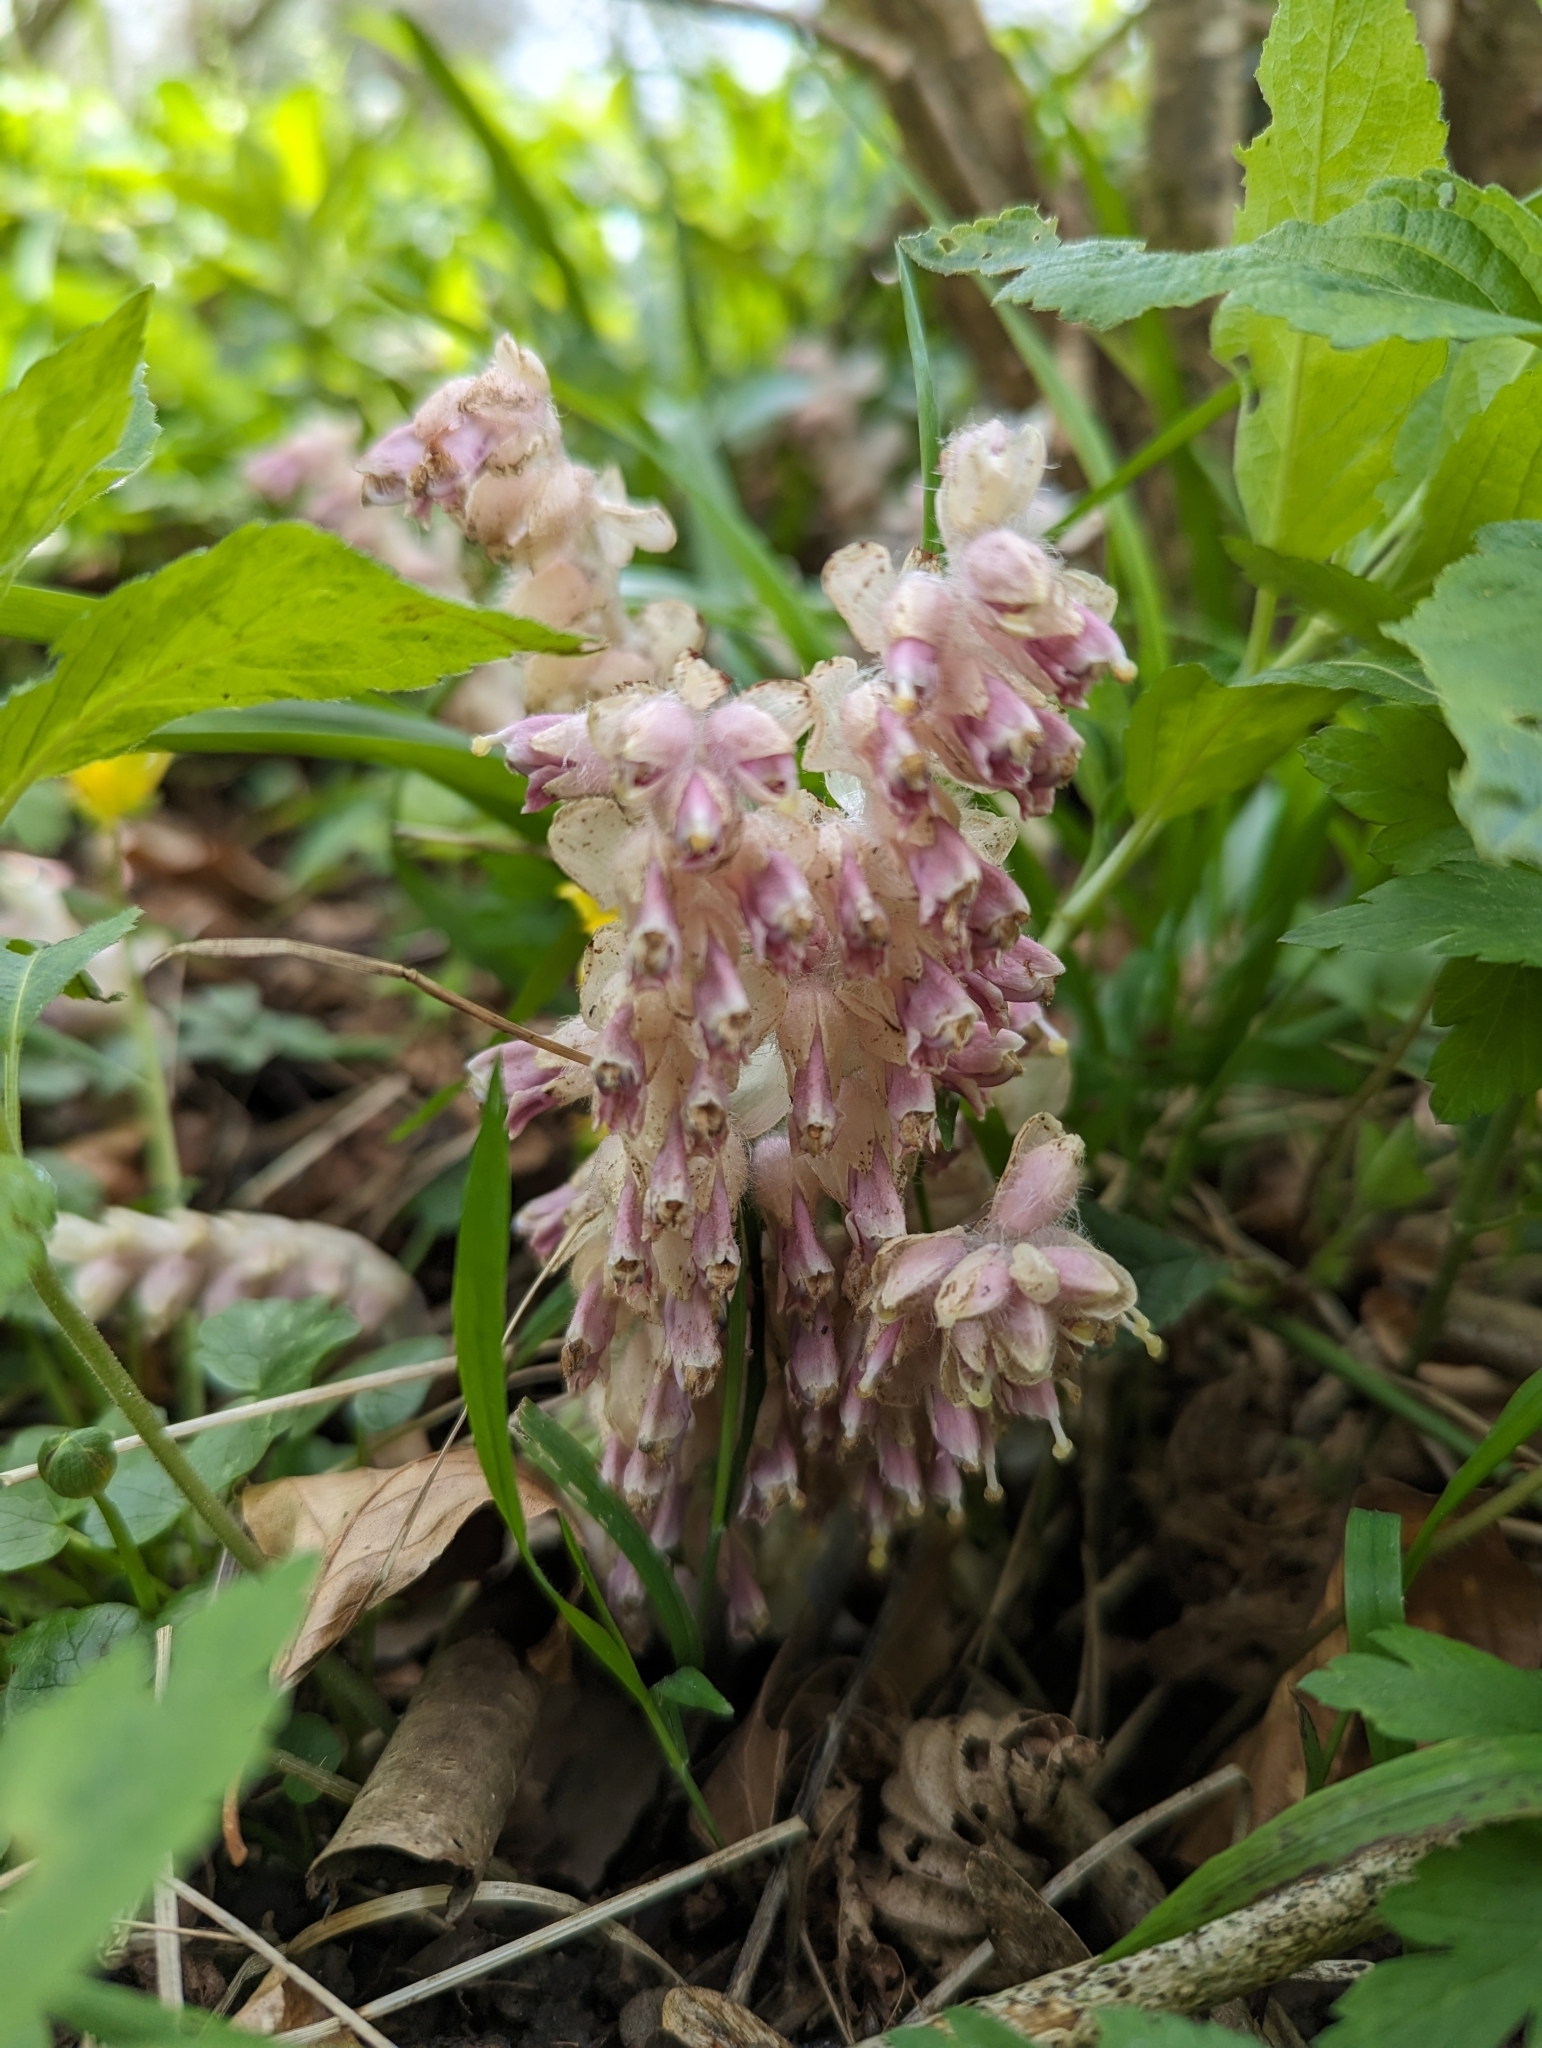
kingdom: Plantae
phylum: Tracheophyta
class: Magnoliopsida
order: Lamiales
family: Orobanchaceae
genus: Lathraea
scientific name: Lathraea squamaria
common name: Toothwort
